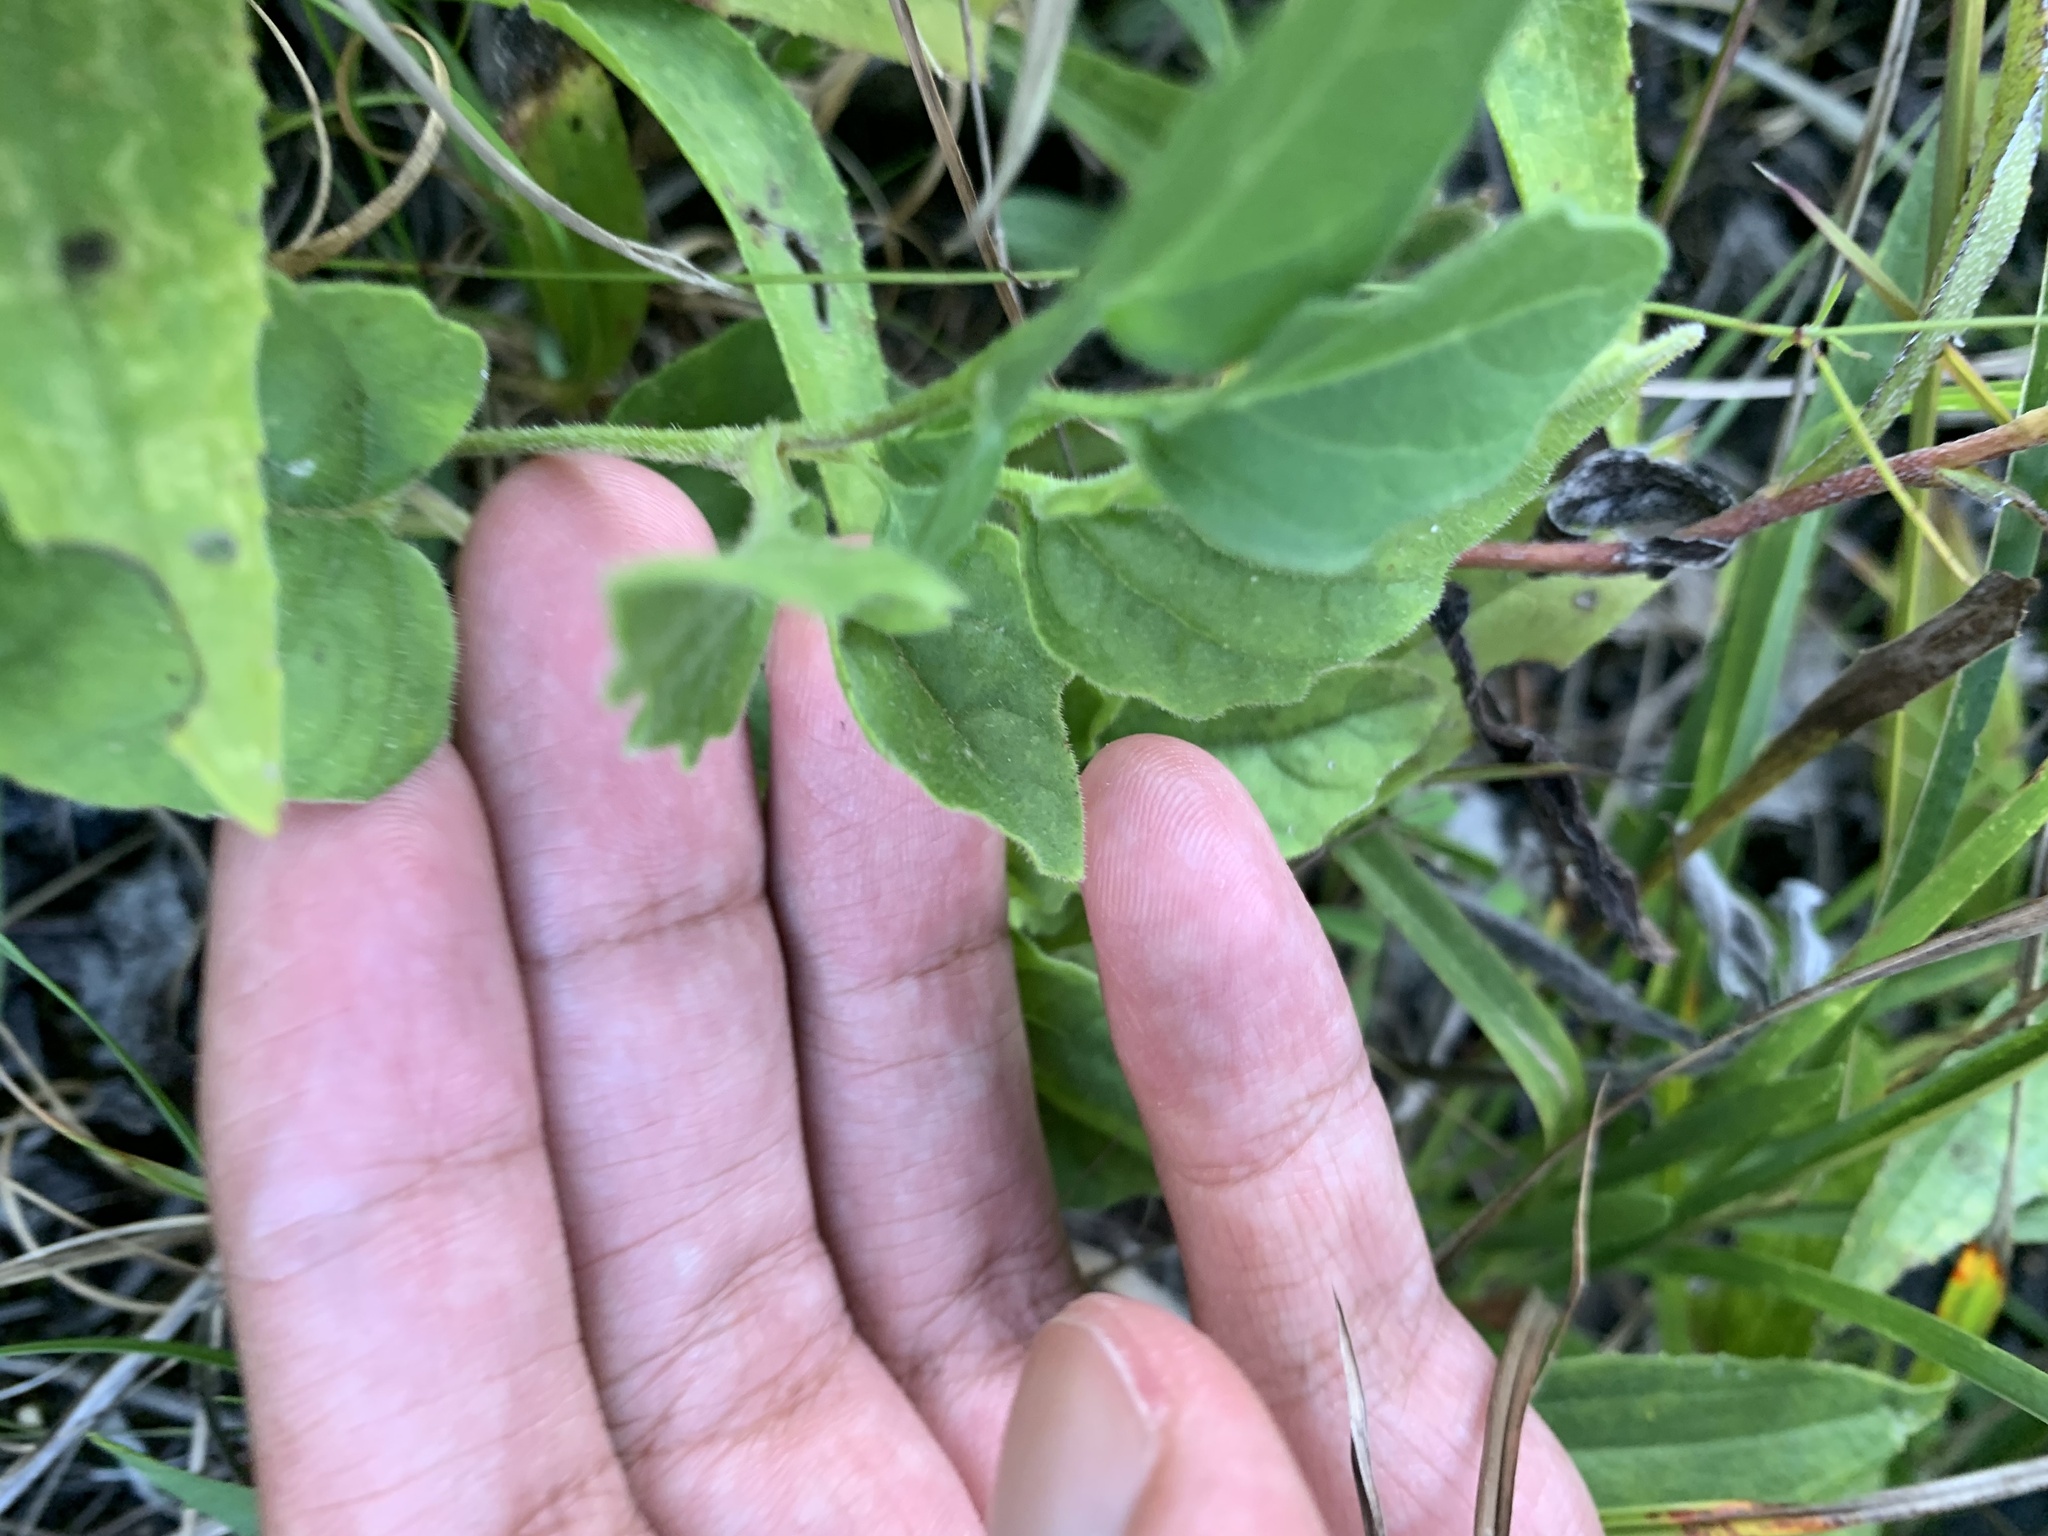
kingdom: Plantae
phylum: Tracheophyta
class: Magnoliopsida
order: Solanales
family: Solanaceae
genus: Physalis
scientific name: Physalis virginiana
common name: Virginia ground-cherry
